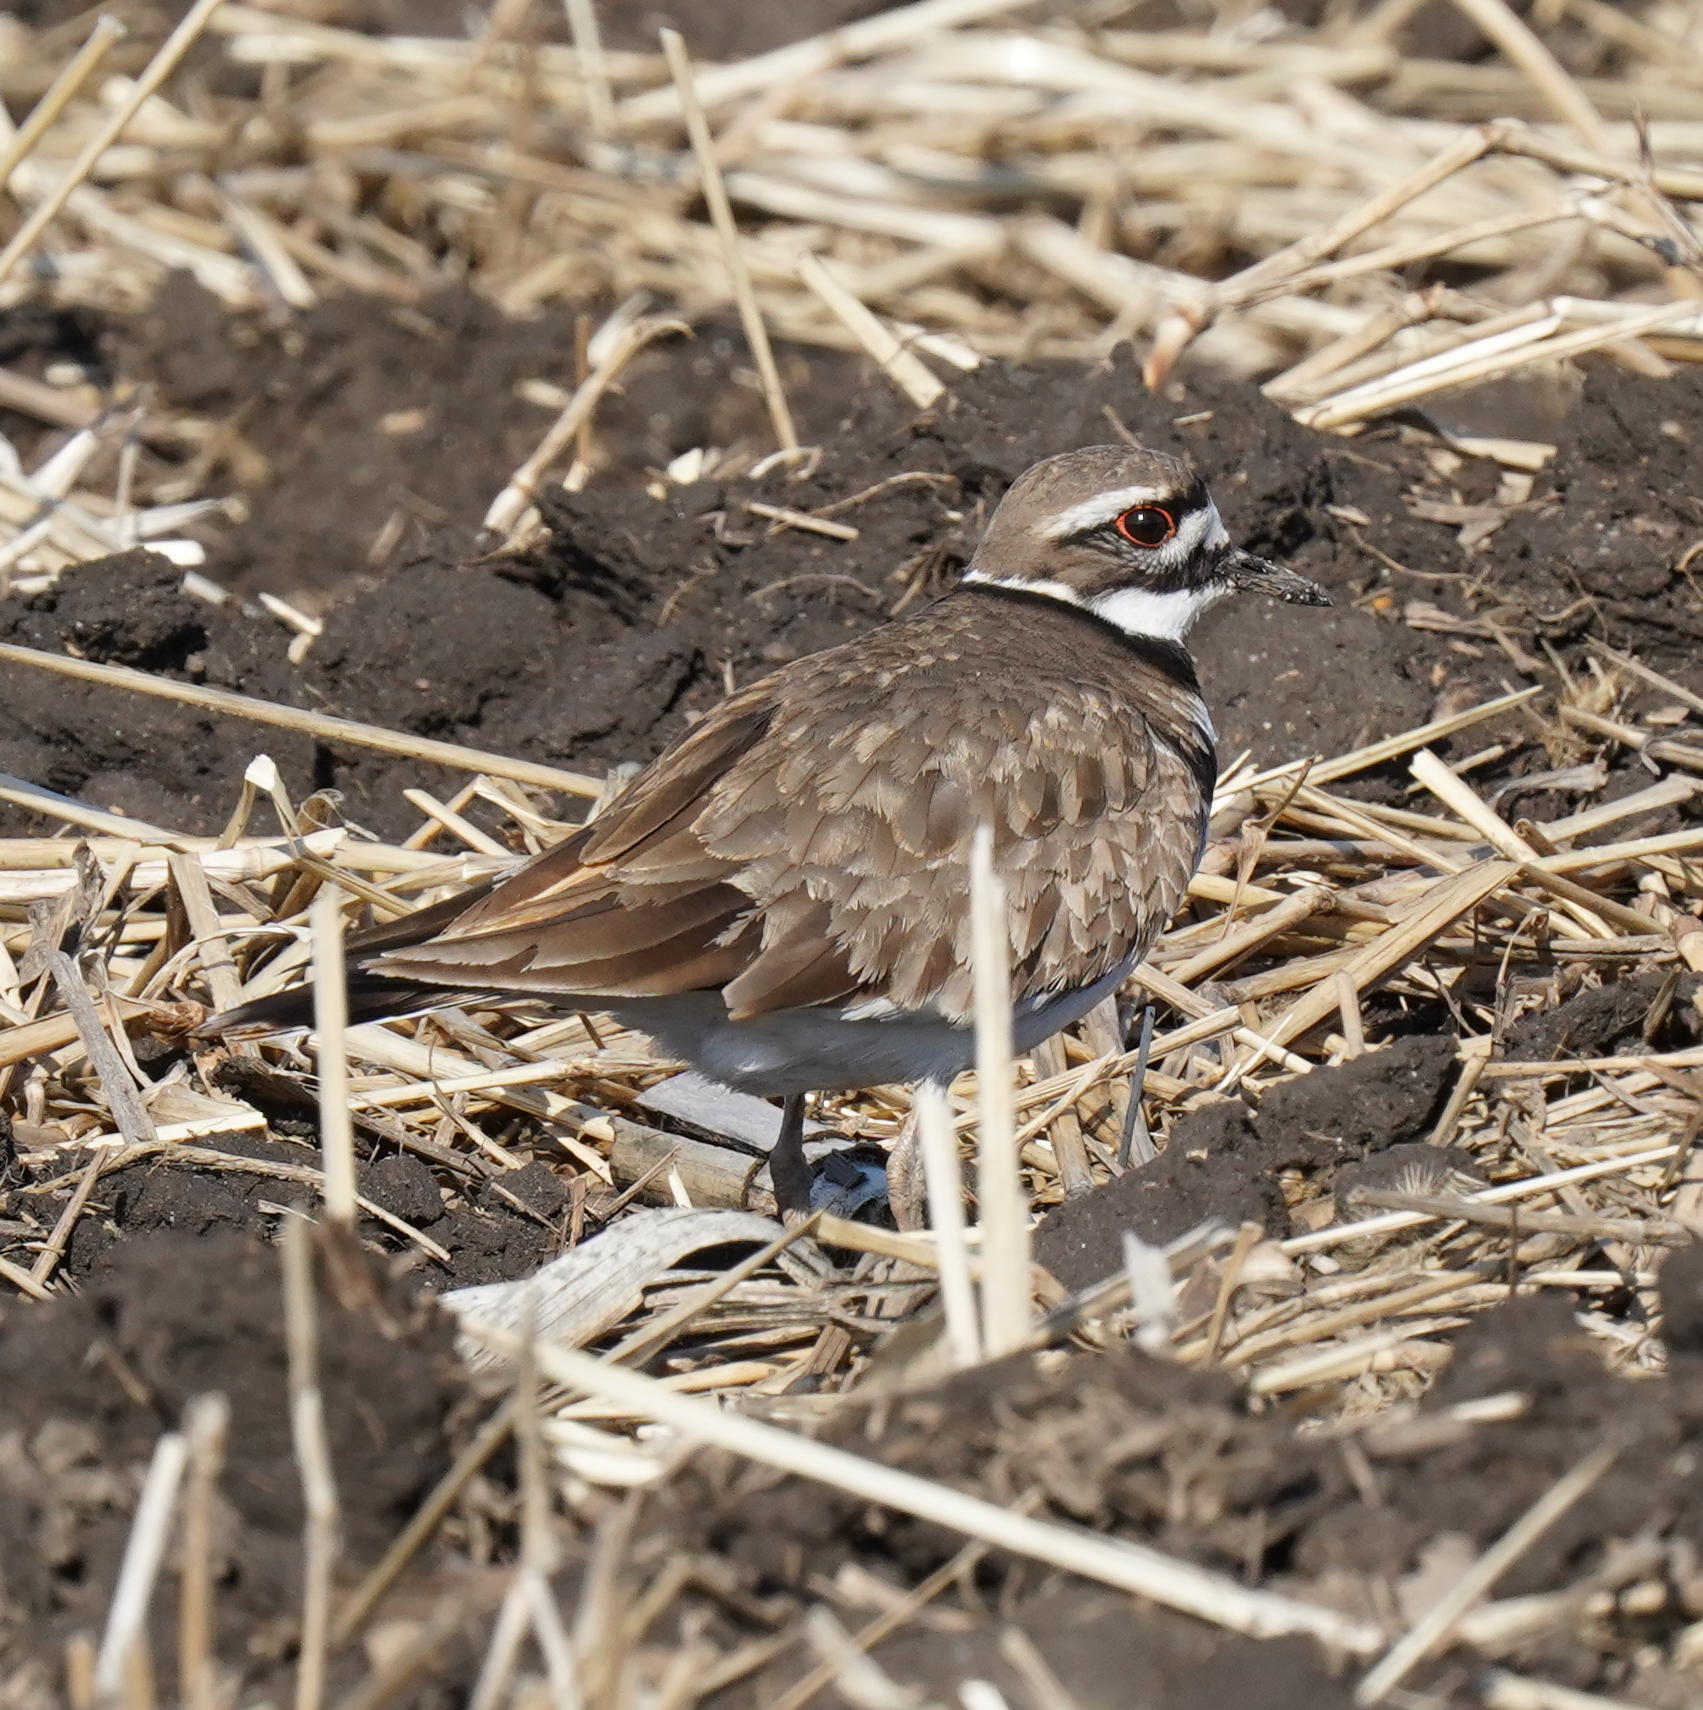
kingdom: Animalia
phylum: Chordata
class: Aves
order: Charadriiformes
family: Charadriidae
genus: Charadrius
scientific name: Charadrius vociferus
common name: Killdeer
